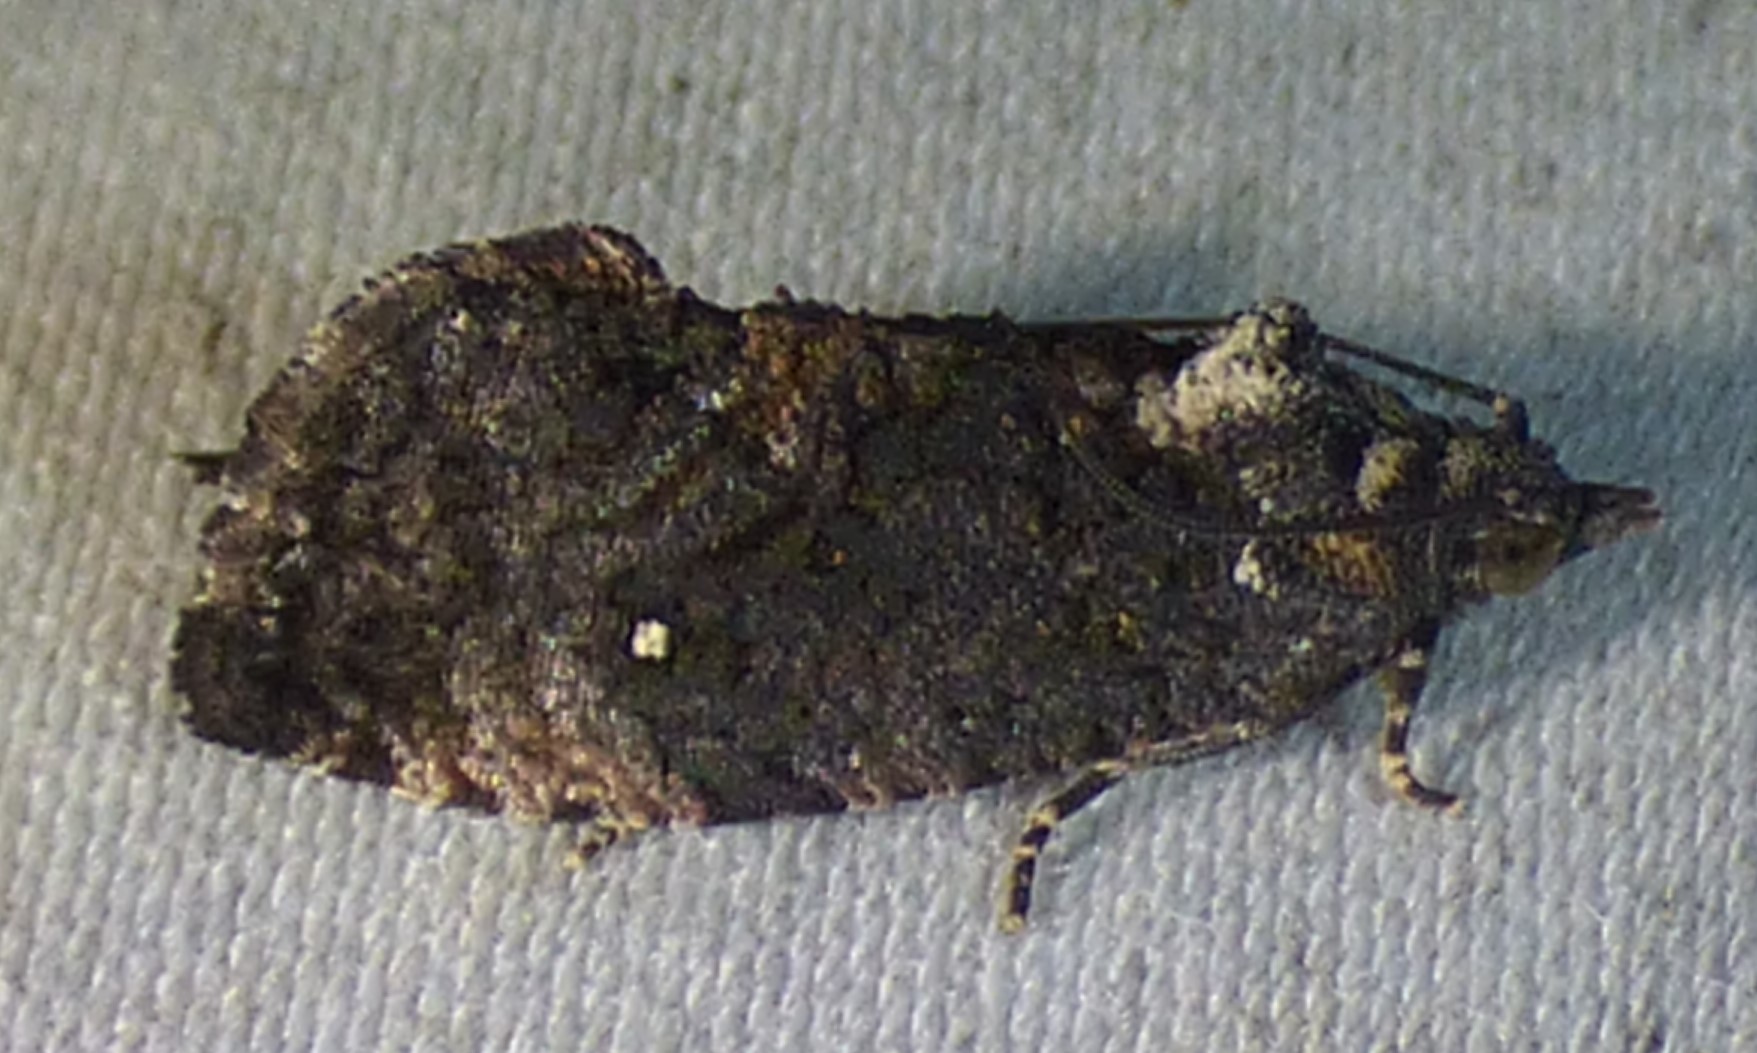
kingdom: Animalia
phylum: Arthropoda
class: Insecta
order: Lepidoptera
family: Tortricidae
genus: Gymnandrosoma
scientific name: Gymnandrosoma punctidiscanum
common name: Dotted ecdytolopha moth
